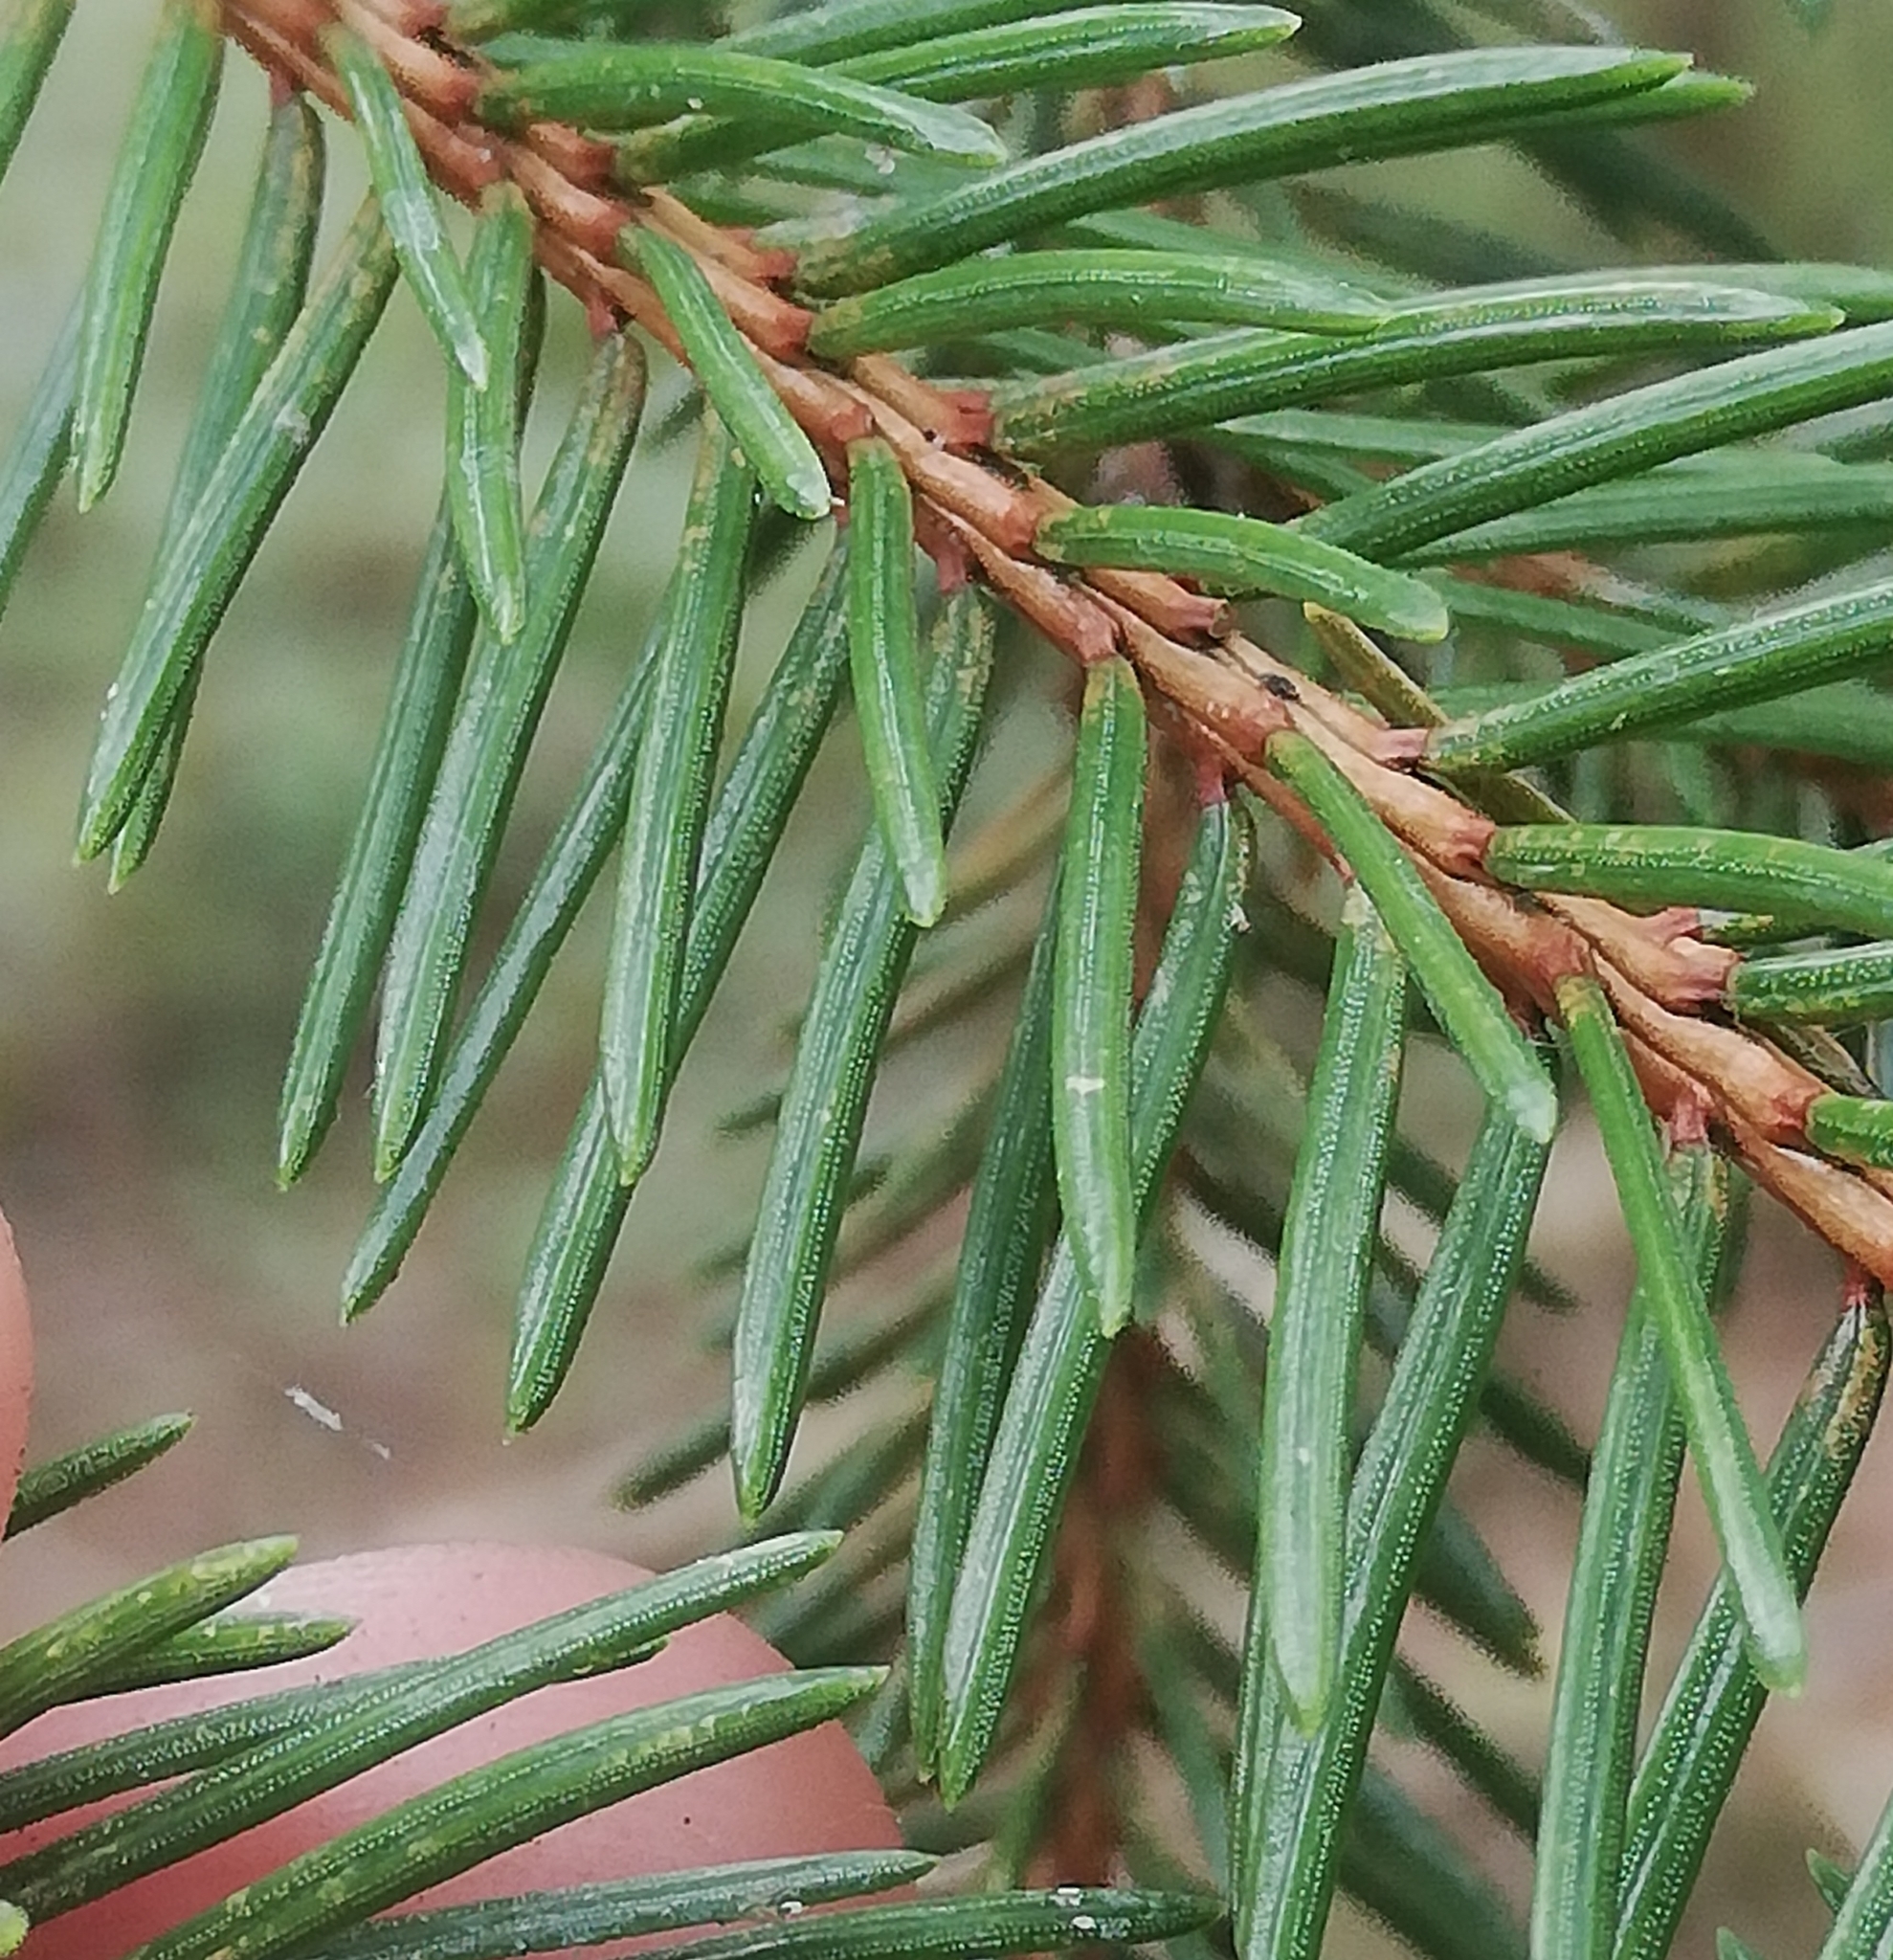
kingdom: Plantae
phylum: Tracheophyta
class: Pinopsida
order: Pinales
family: Pinaceae
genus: Picea
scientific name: Picea abies
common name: Norway spruce
